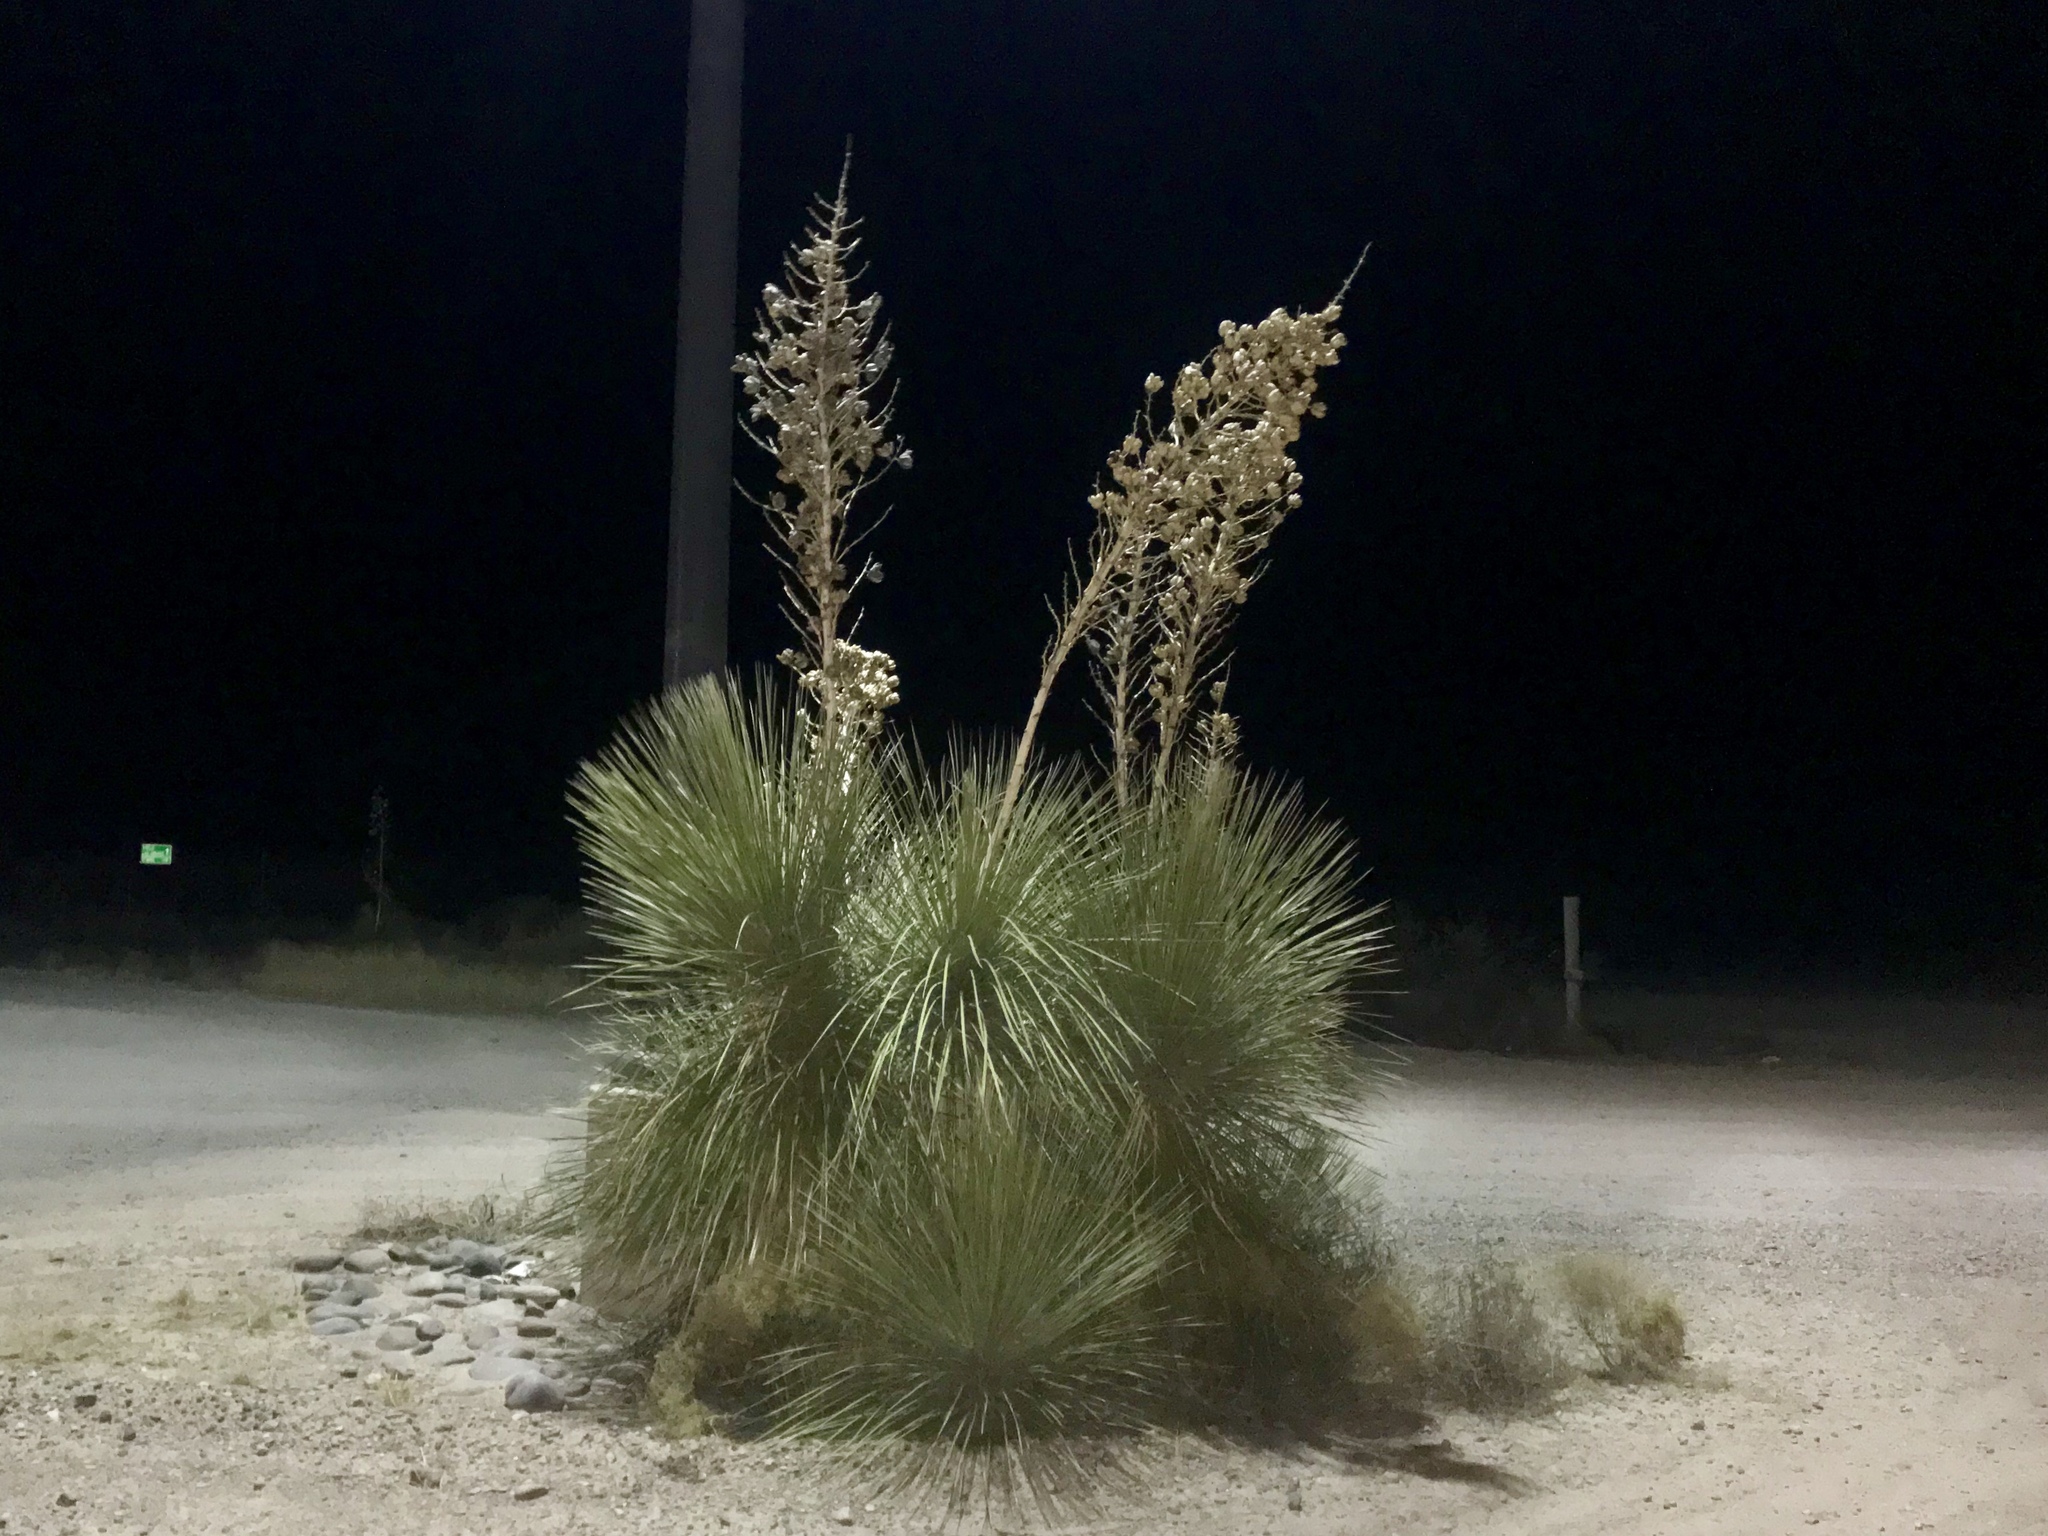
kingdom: Plantae
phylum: Tracheophyta
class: Liliopsida
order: Asparagales
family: Asparagaceae
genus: Yucca
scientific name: Yucca elata
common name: Palmella
